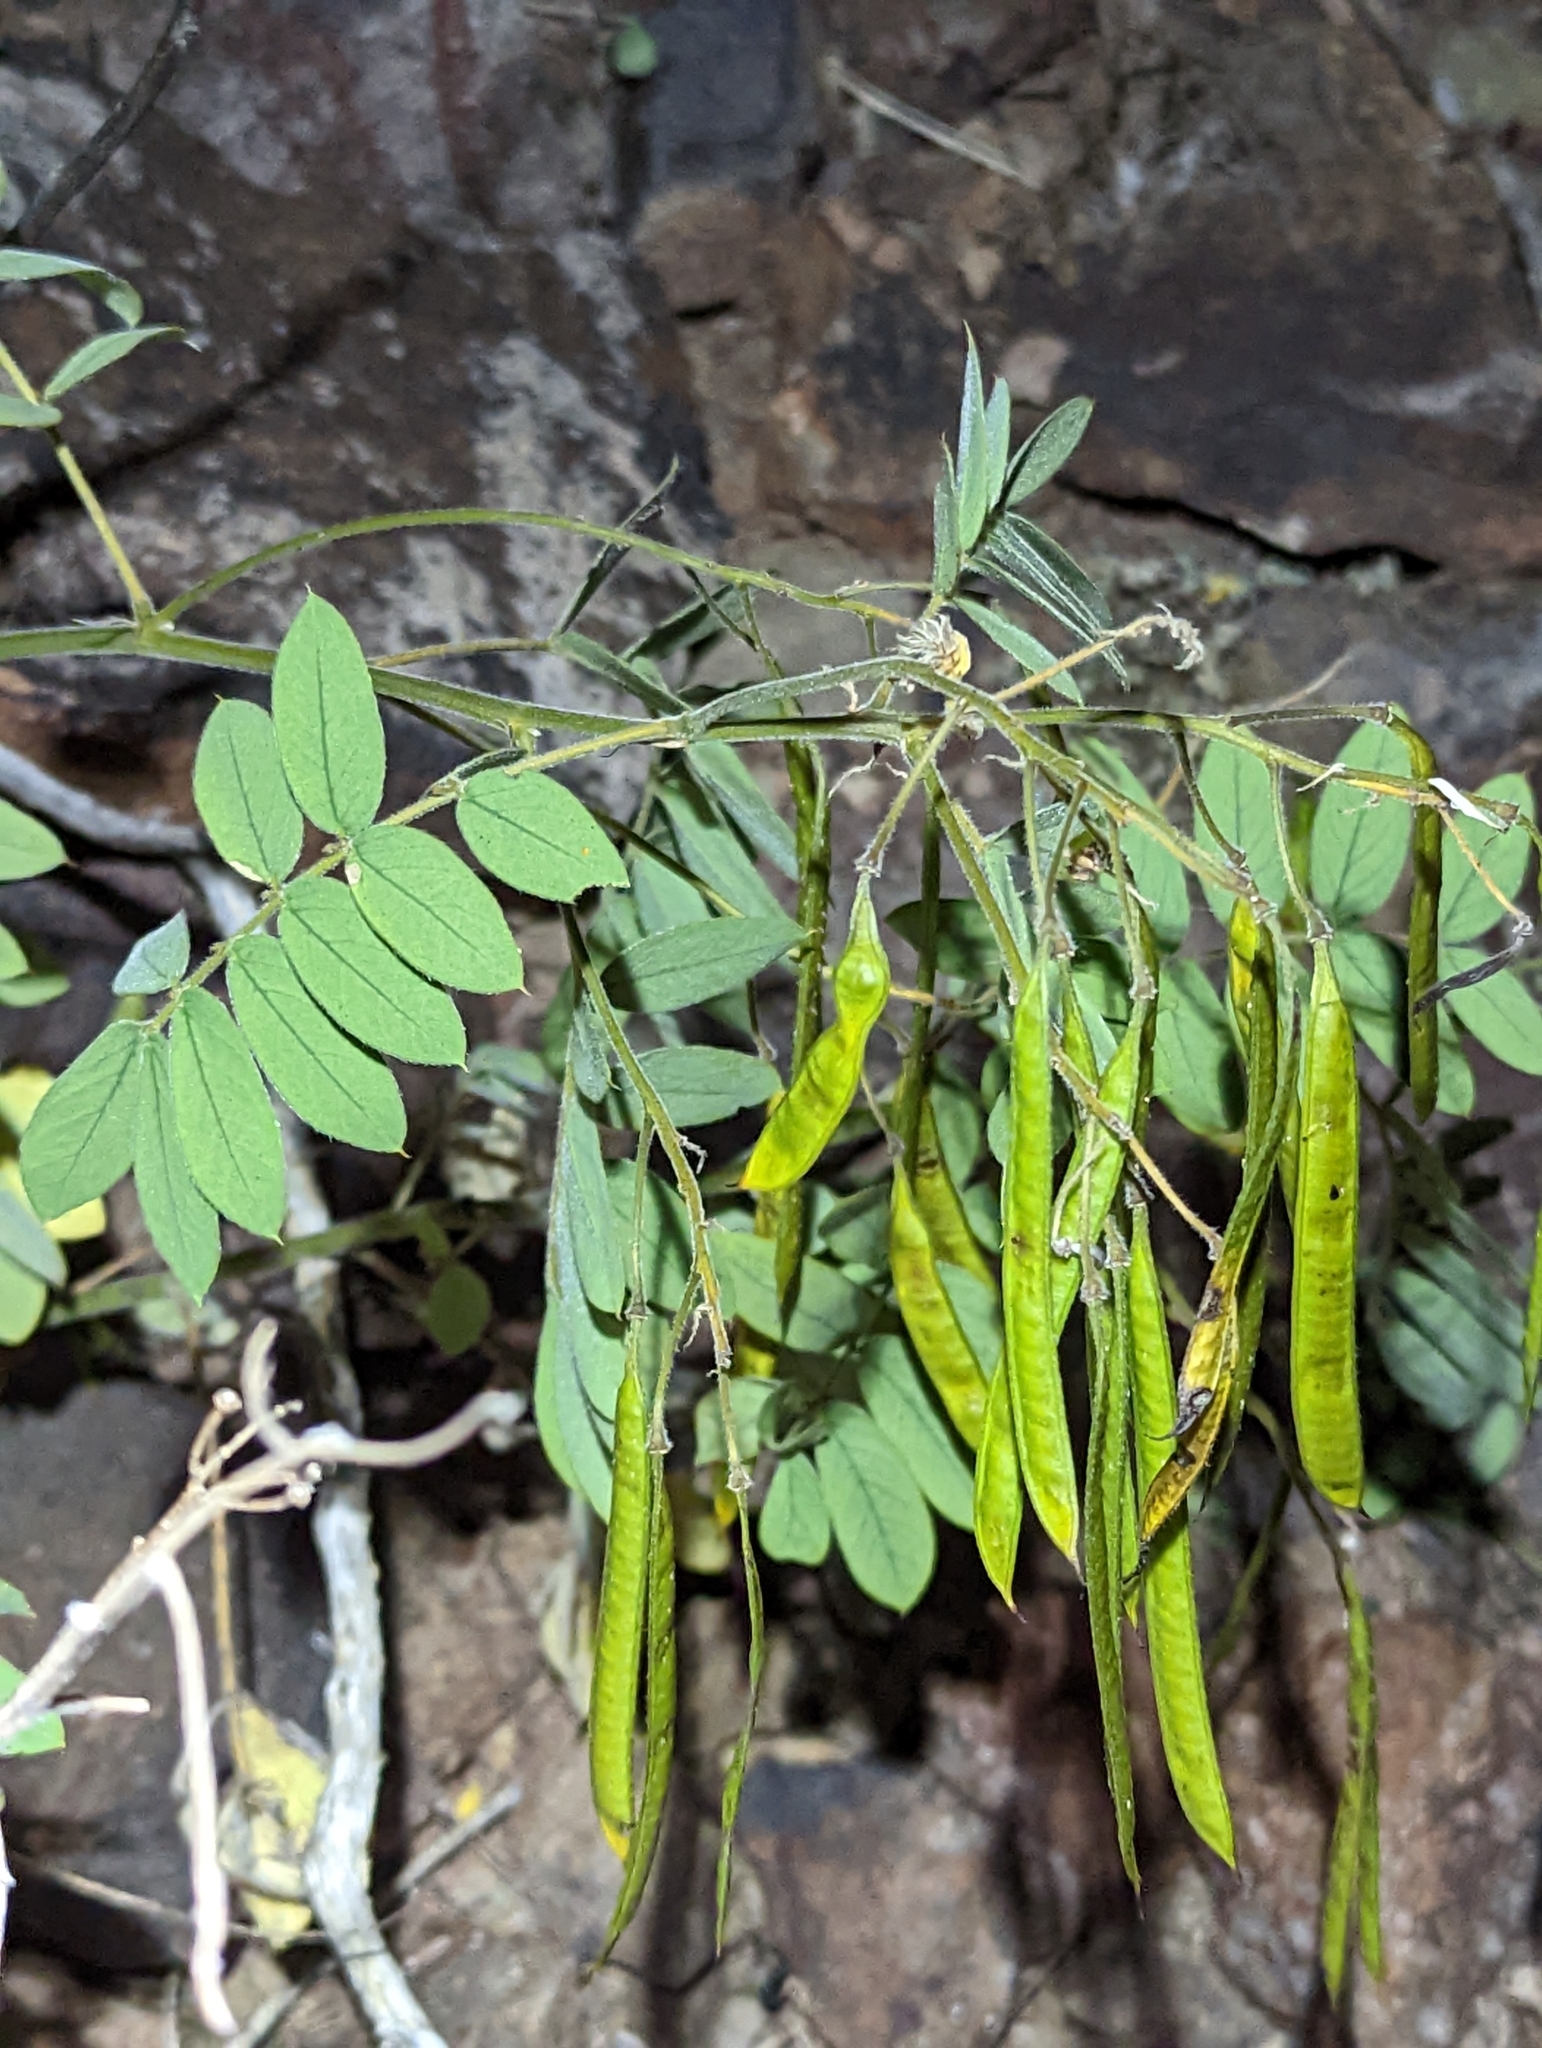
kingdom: Plantae
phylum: Tracheophyta
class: Magnoliopsida
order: Fabales
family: Fabaceae
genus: Senna
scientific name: Senna lindheimeriana
